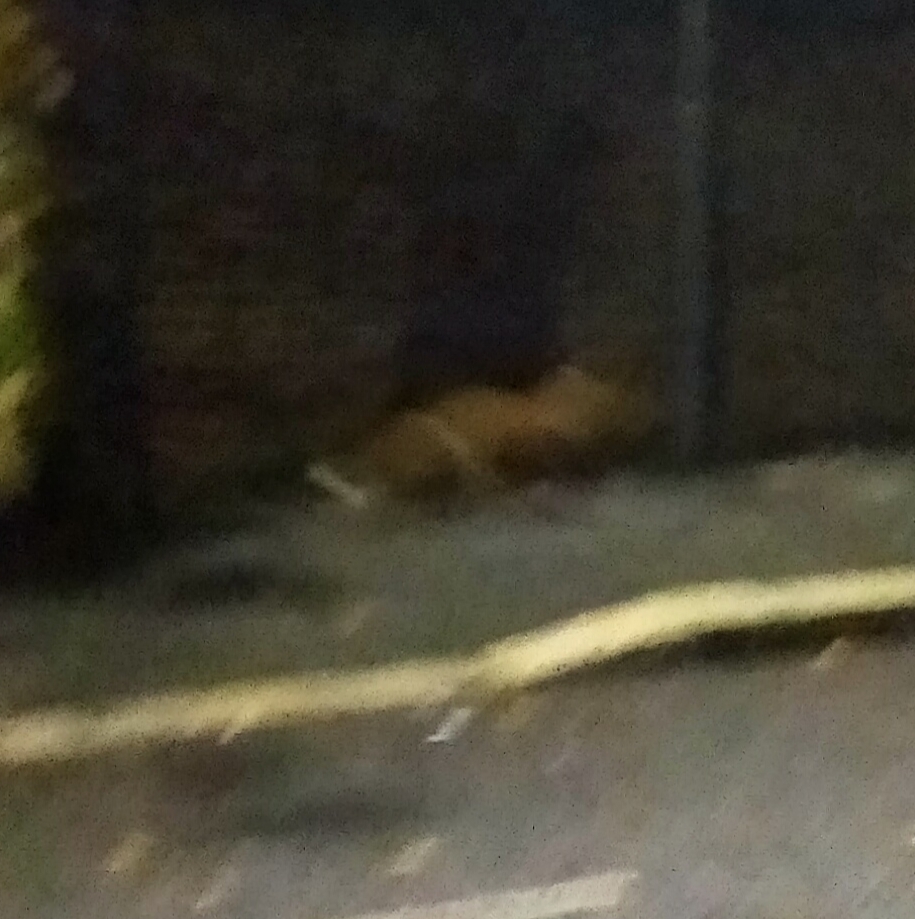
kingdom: Animalia
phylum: Chordata
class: Mammalia
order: Carnivora
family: Canidae
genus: Vulpes
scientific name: Vulpes vulpes
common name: Red fox
